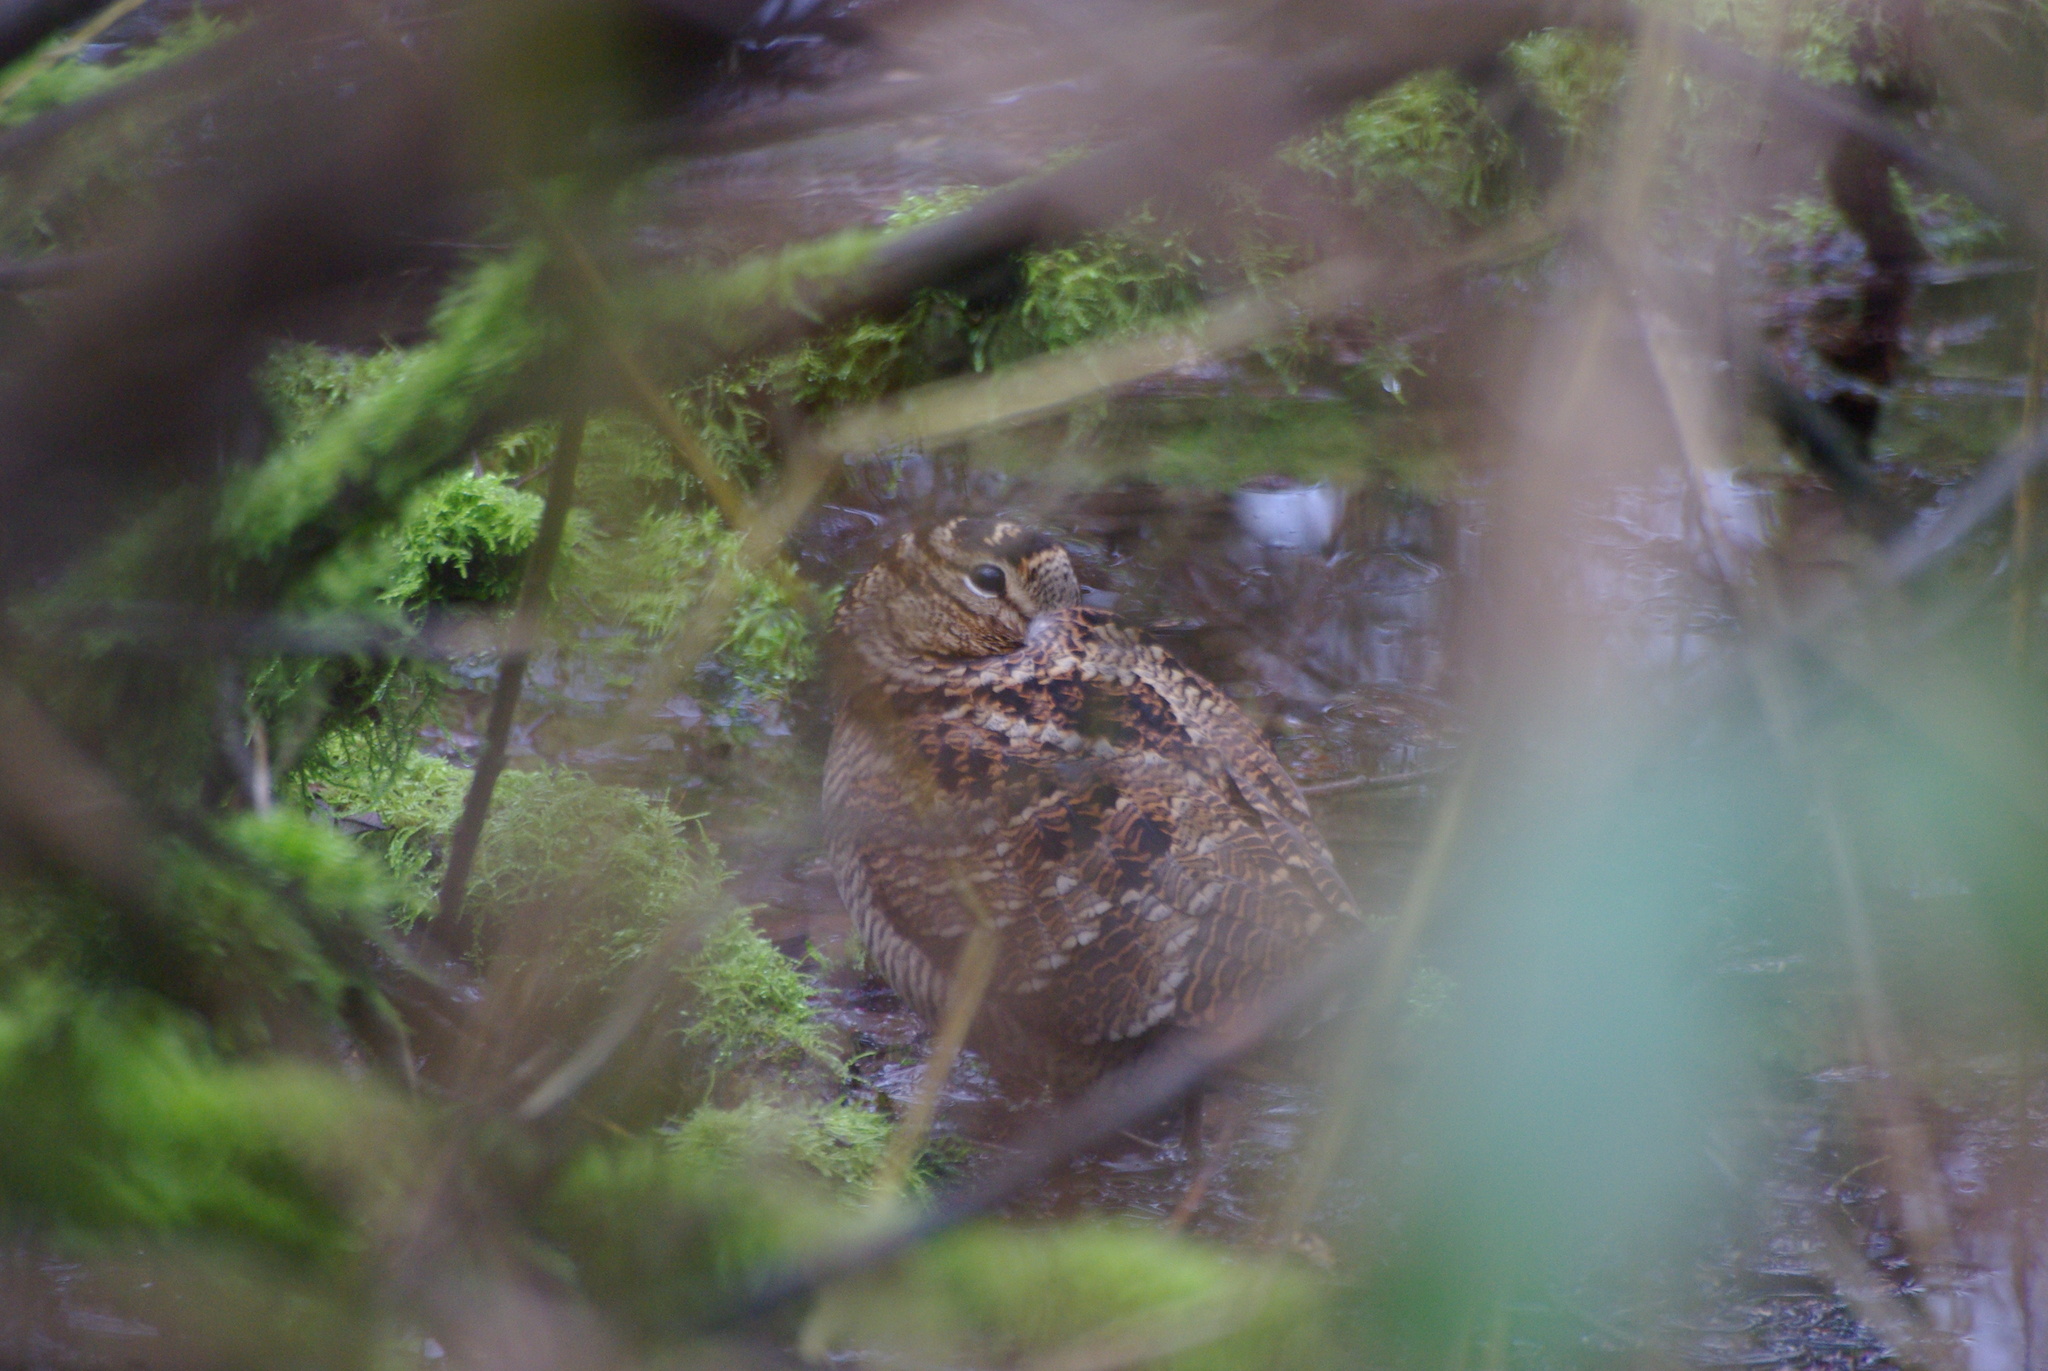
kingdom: Animalia
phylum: Chordata
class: Aves
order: Charadriiformes
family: Scolopacidae
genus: Scolopax
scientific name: Scolopax rusticola
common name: Eurasian woodcock
